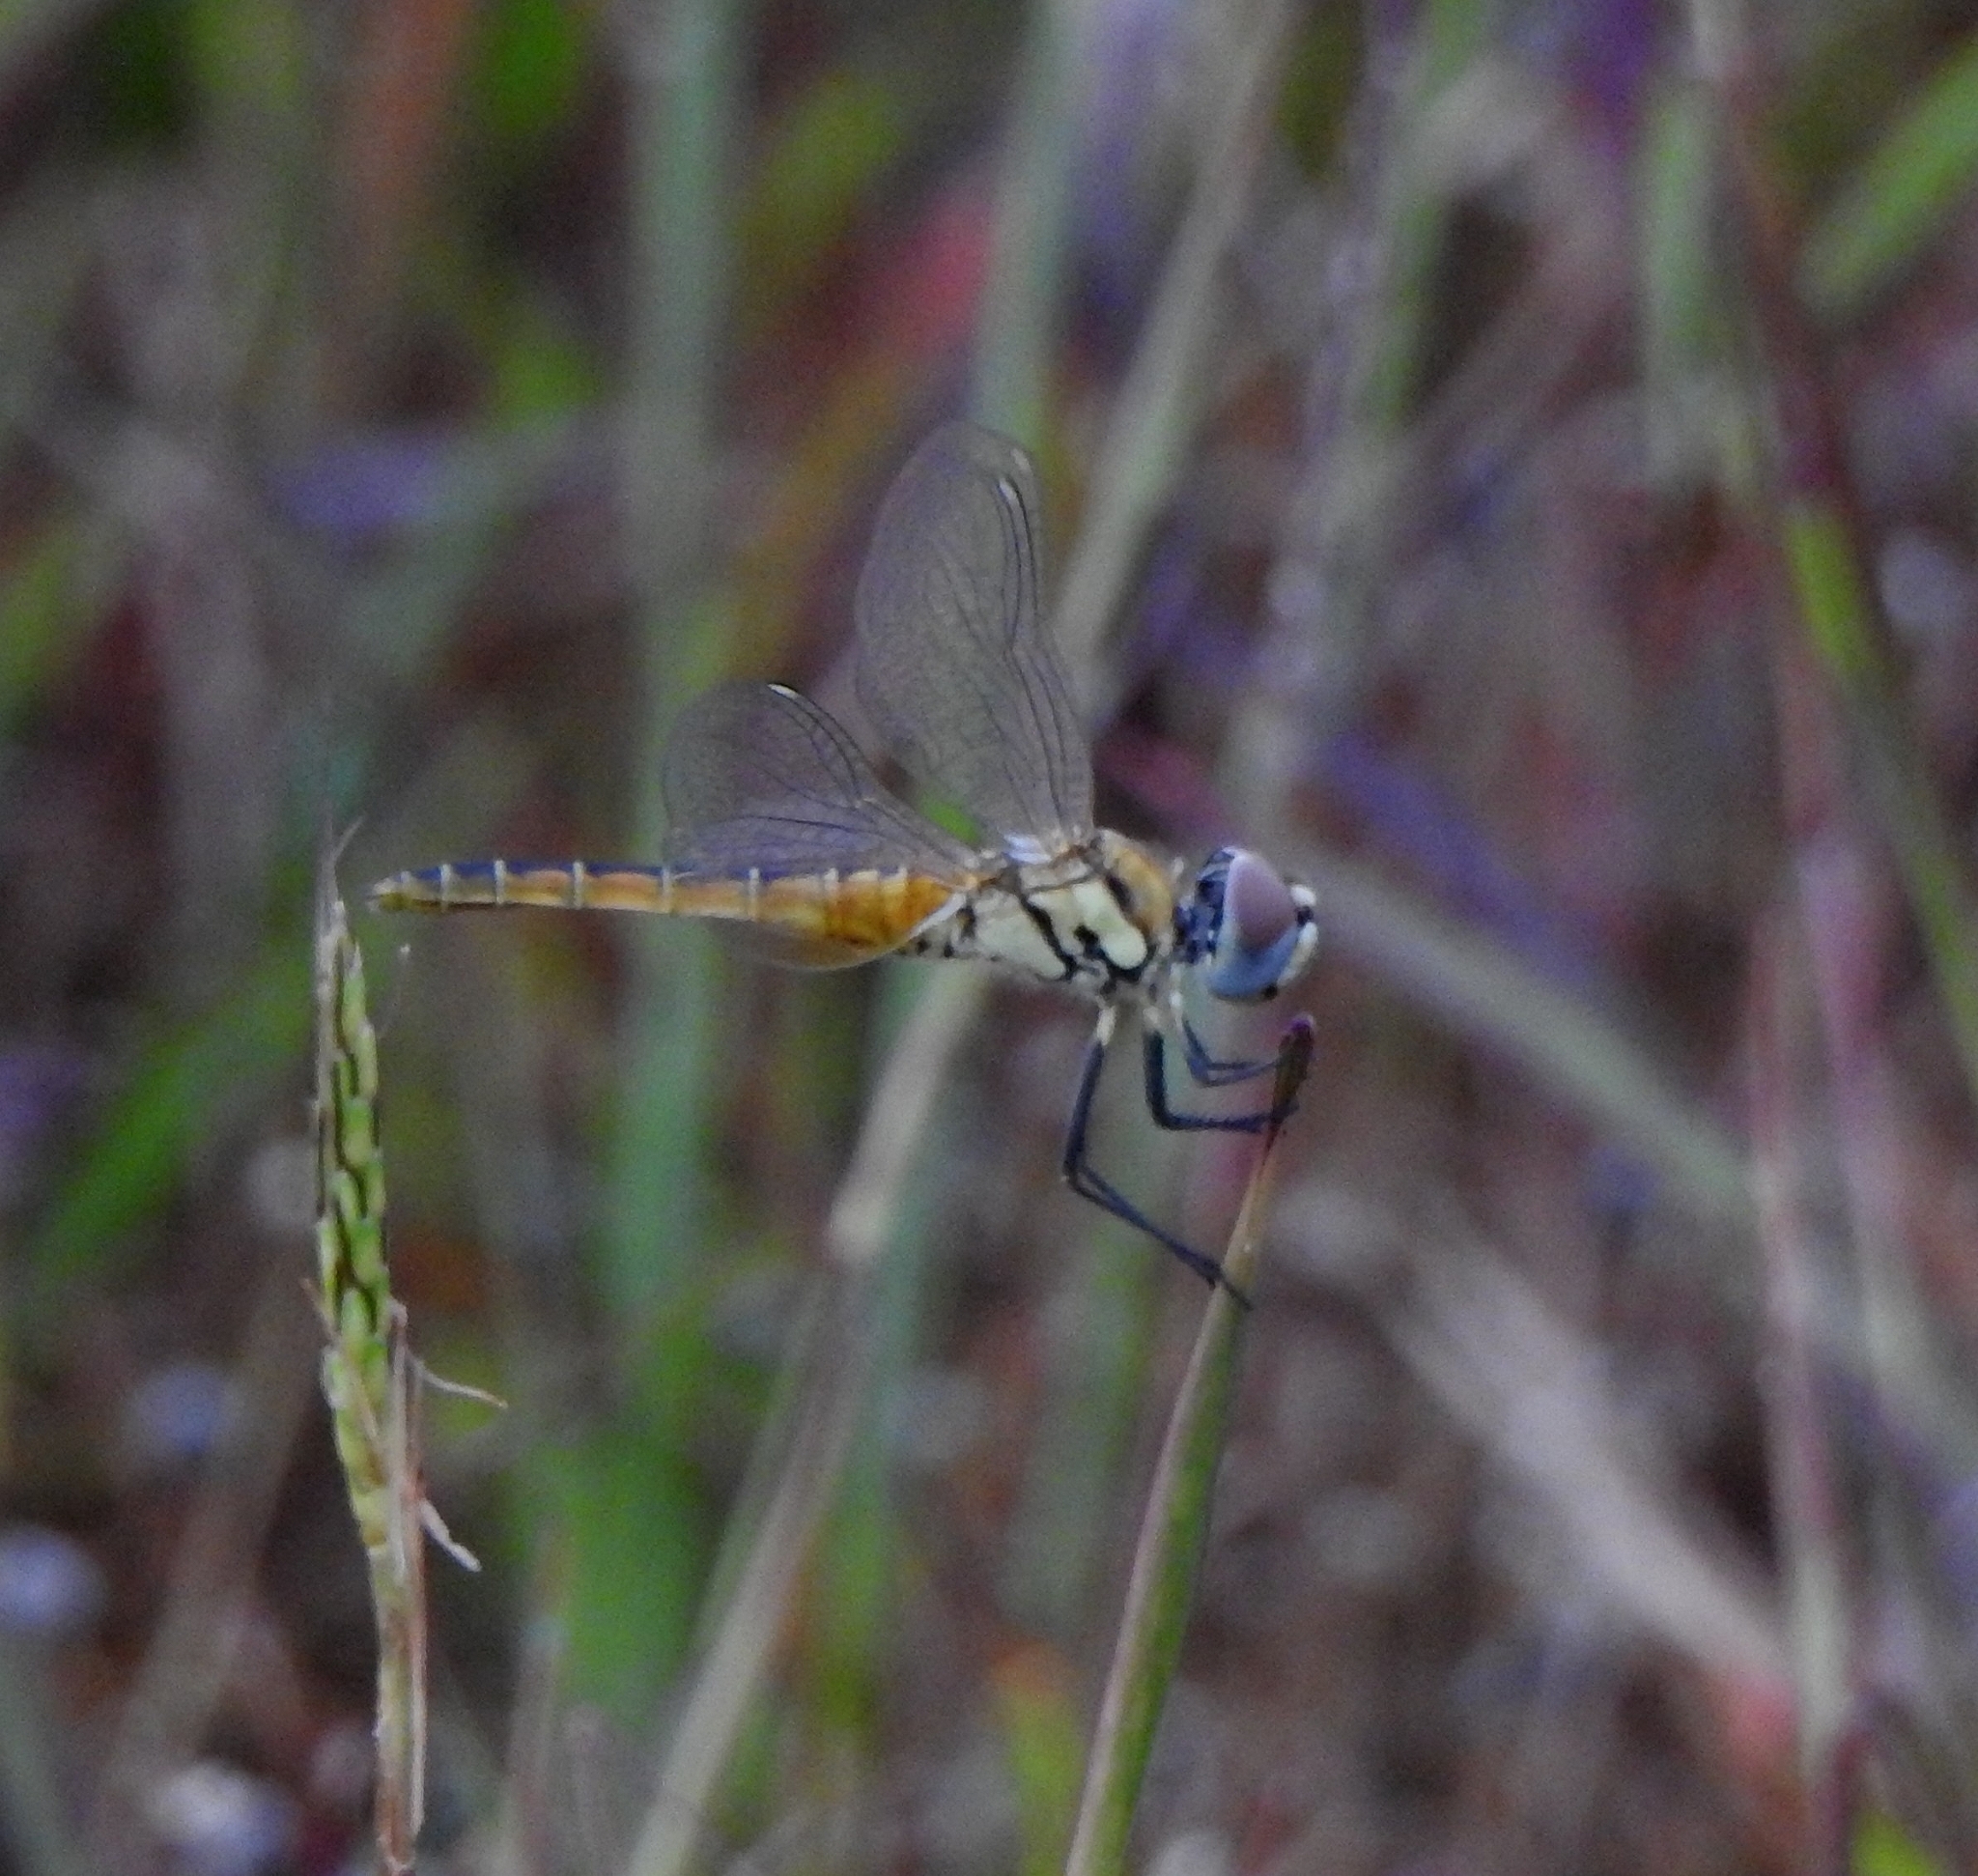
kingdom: Animalia
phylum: Arthropoda
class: Insecta
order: Odonata
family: Libellulidae
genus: Macrodiplax
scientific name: Macrodiplax cora
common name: Coastal glider
